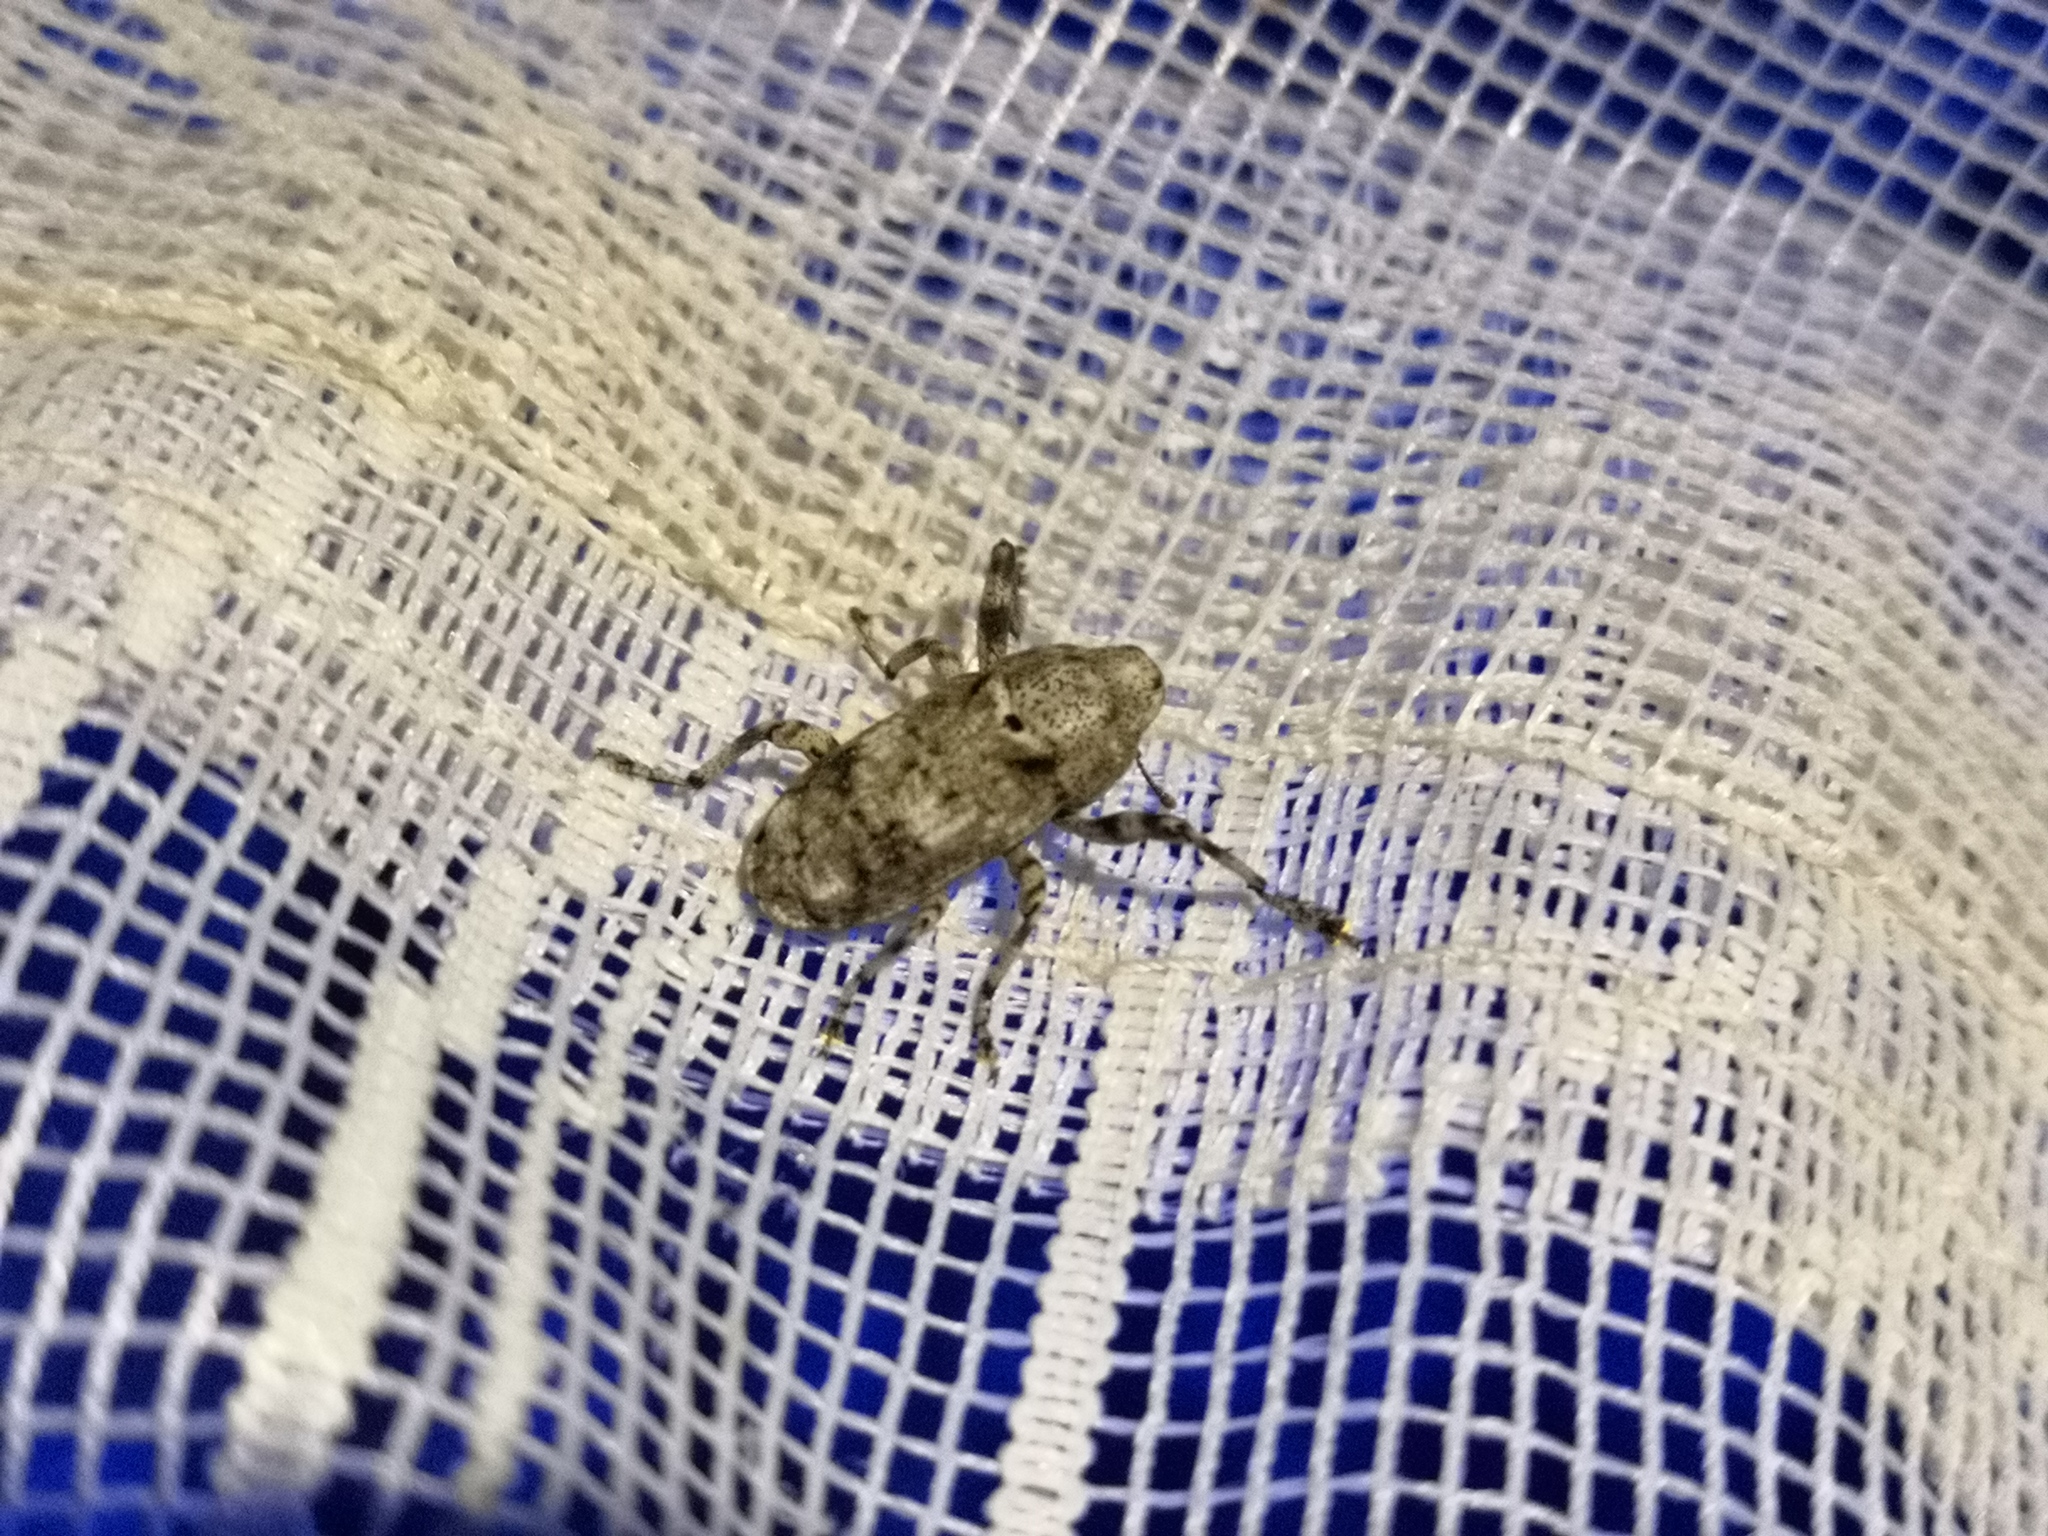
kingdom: Animalia
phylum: Arthropoda
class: Insecta
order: Coleoptera
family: Curculionidae
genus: Gasterocercus
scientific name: Gasterocercus depressirostris
